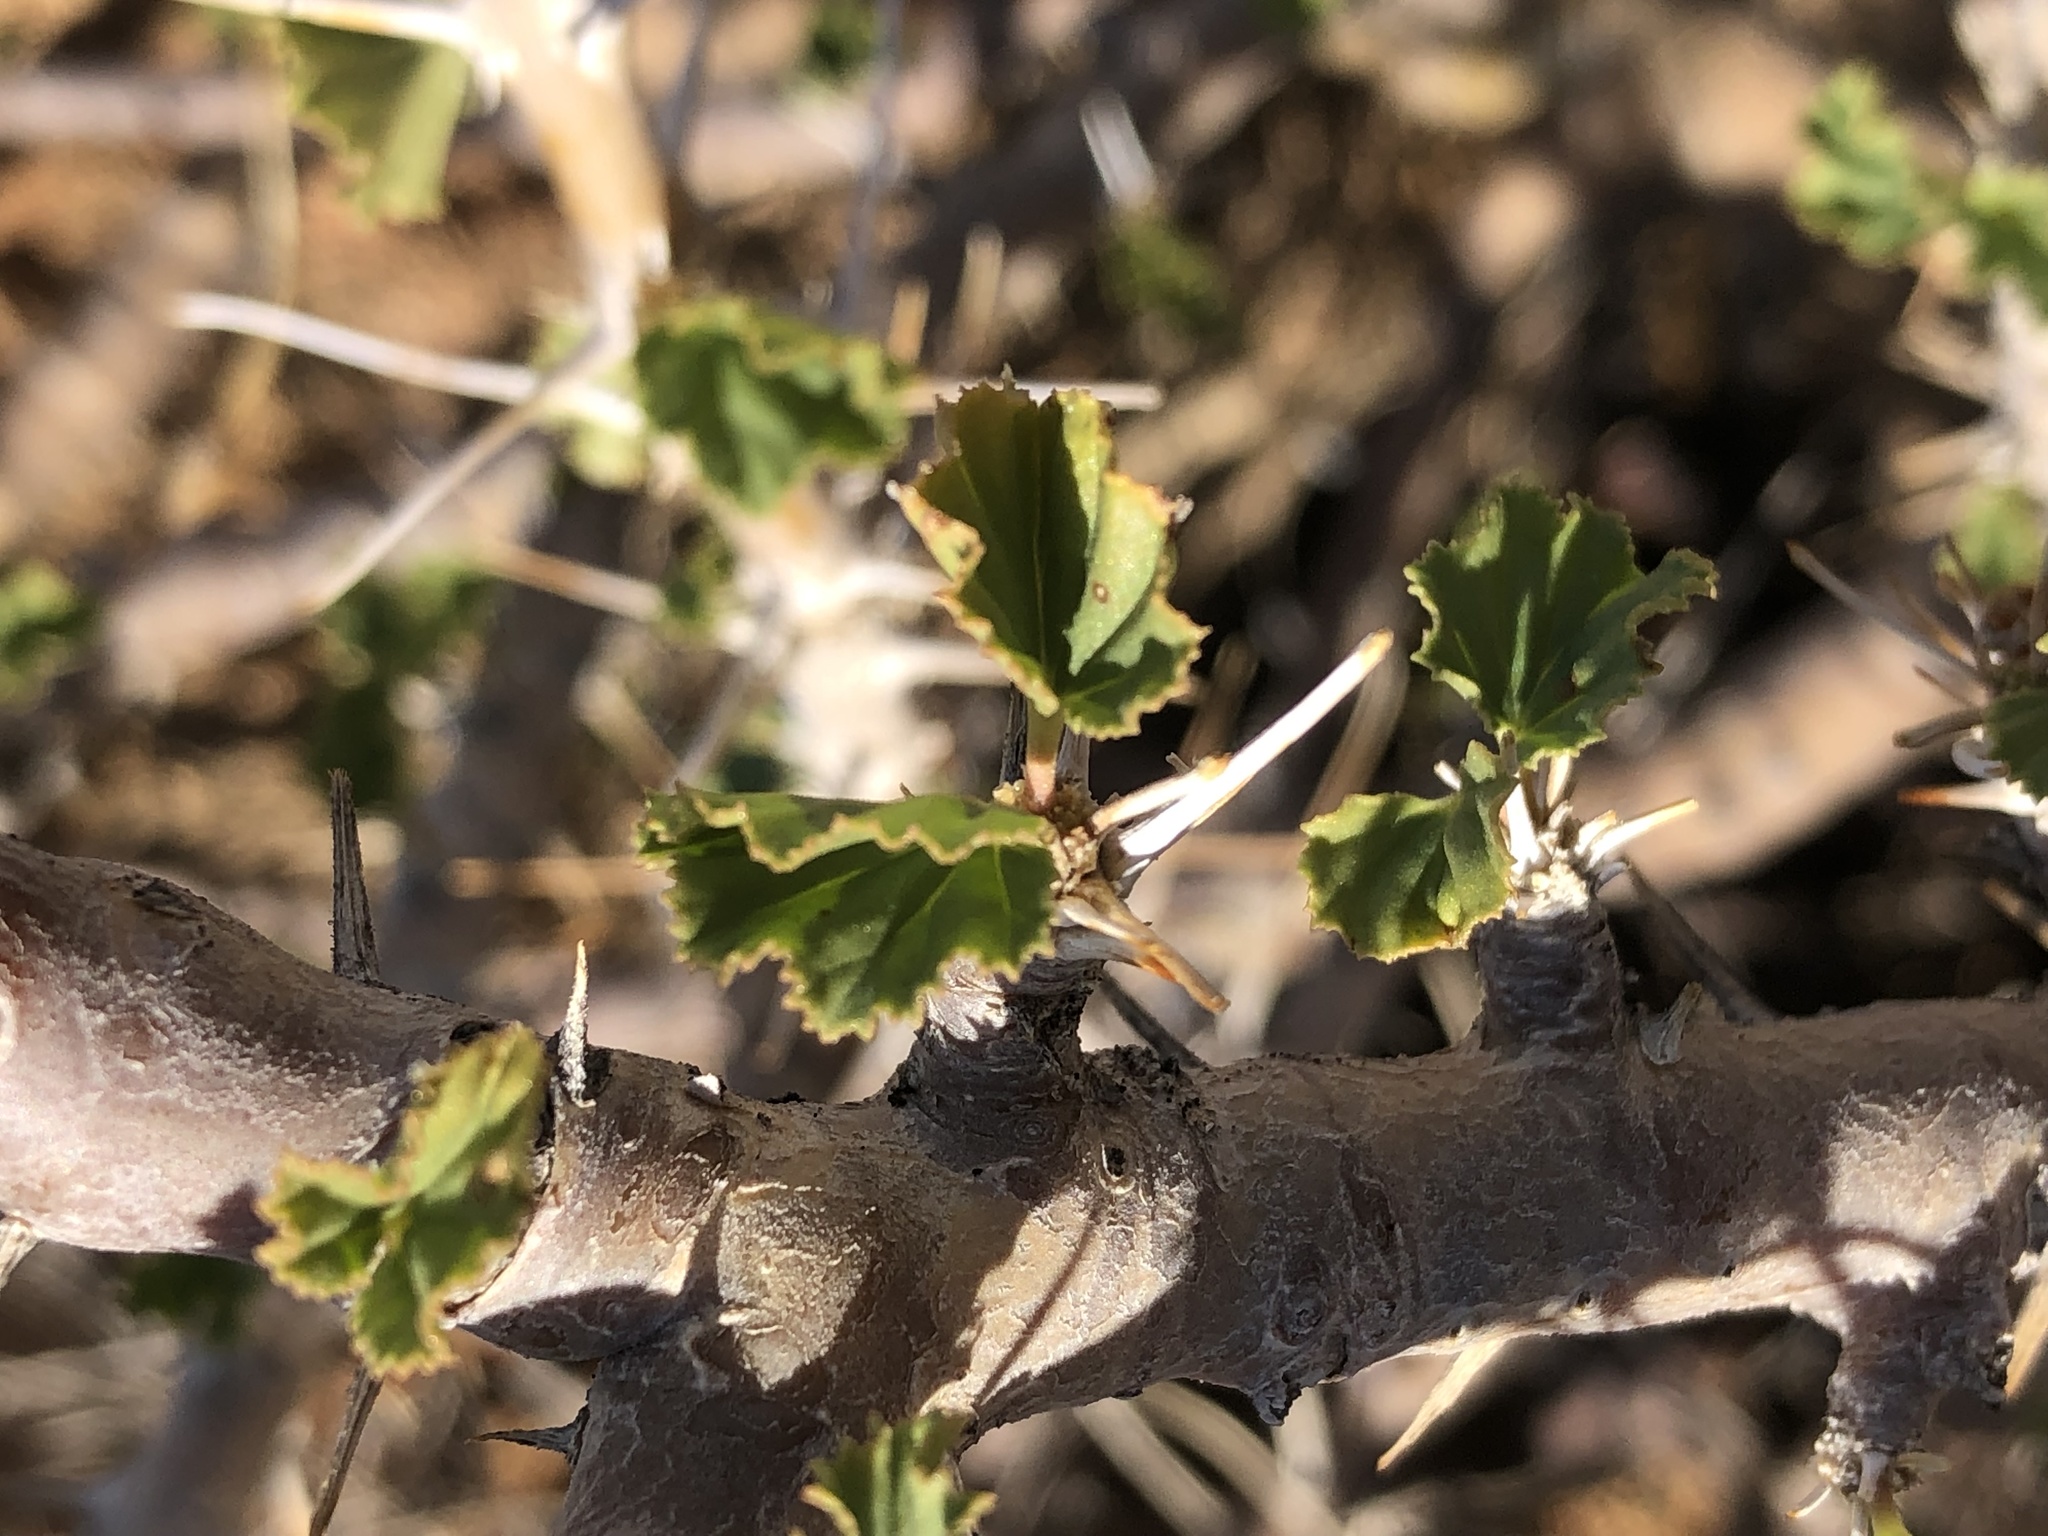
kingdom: Plantae
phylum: Tracheophyta
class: Magnoliopsida
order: Geraniales
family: Geraniaceae
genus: Monsonia
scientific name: Monsonia marlothii
